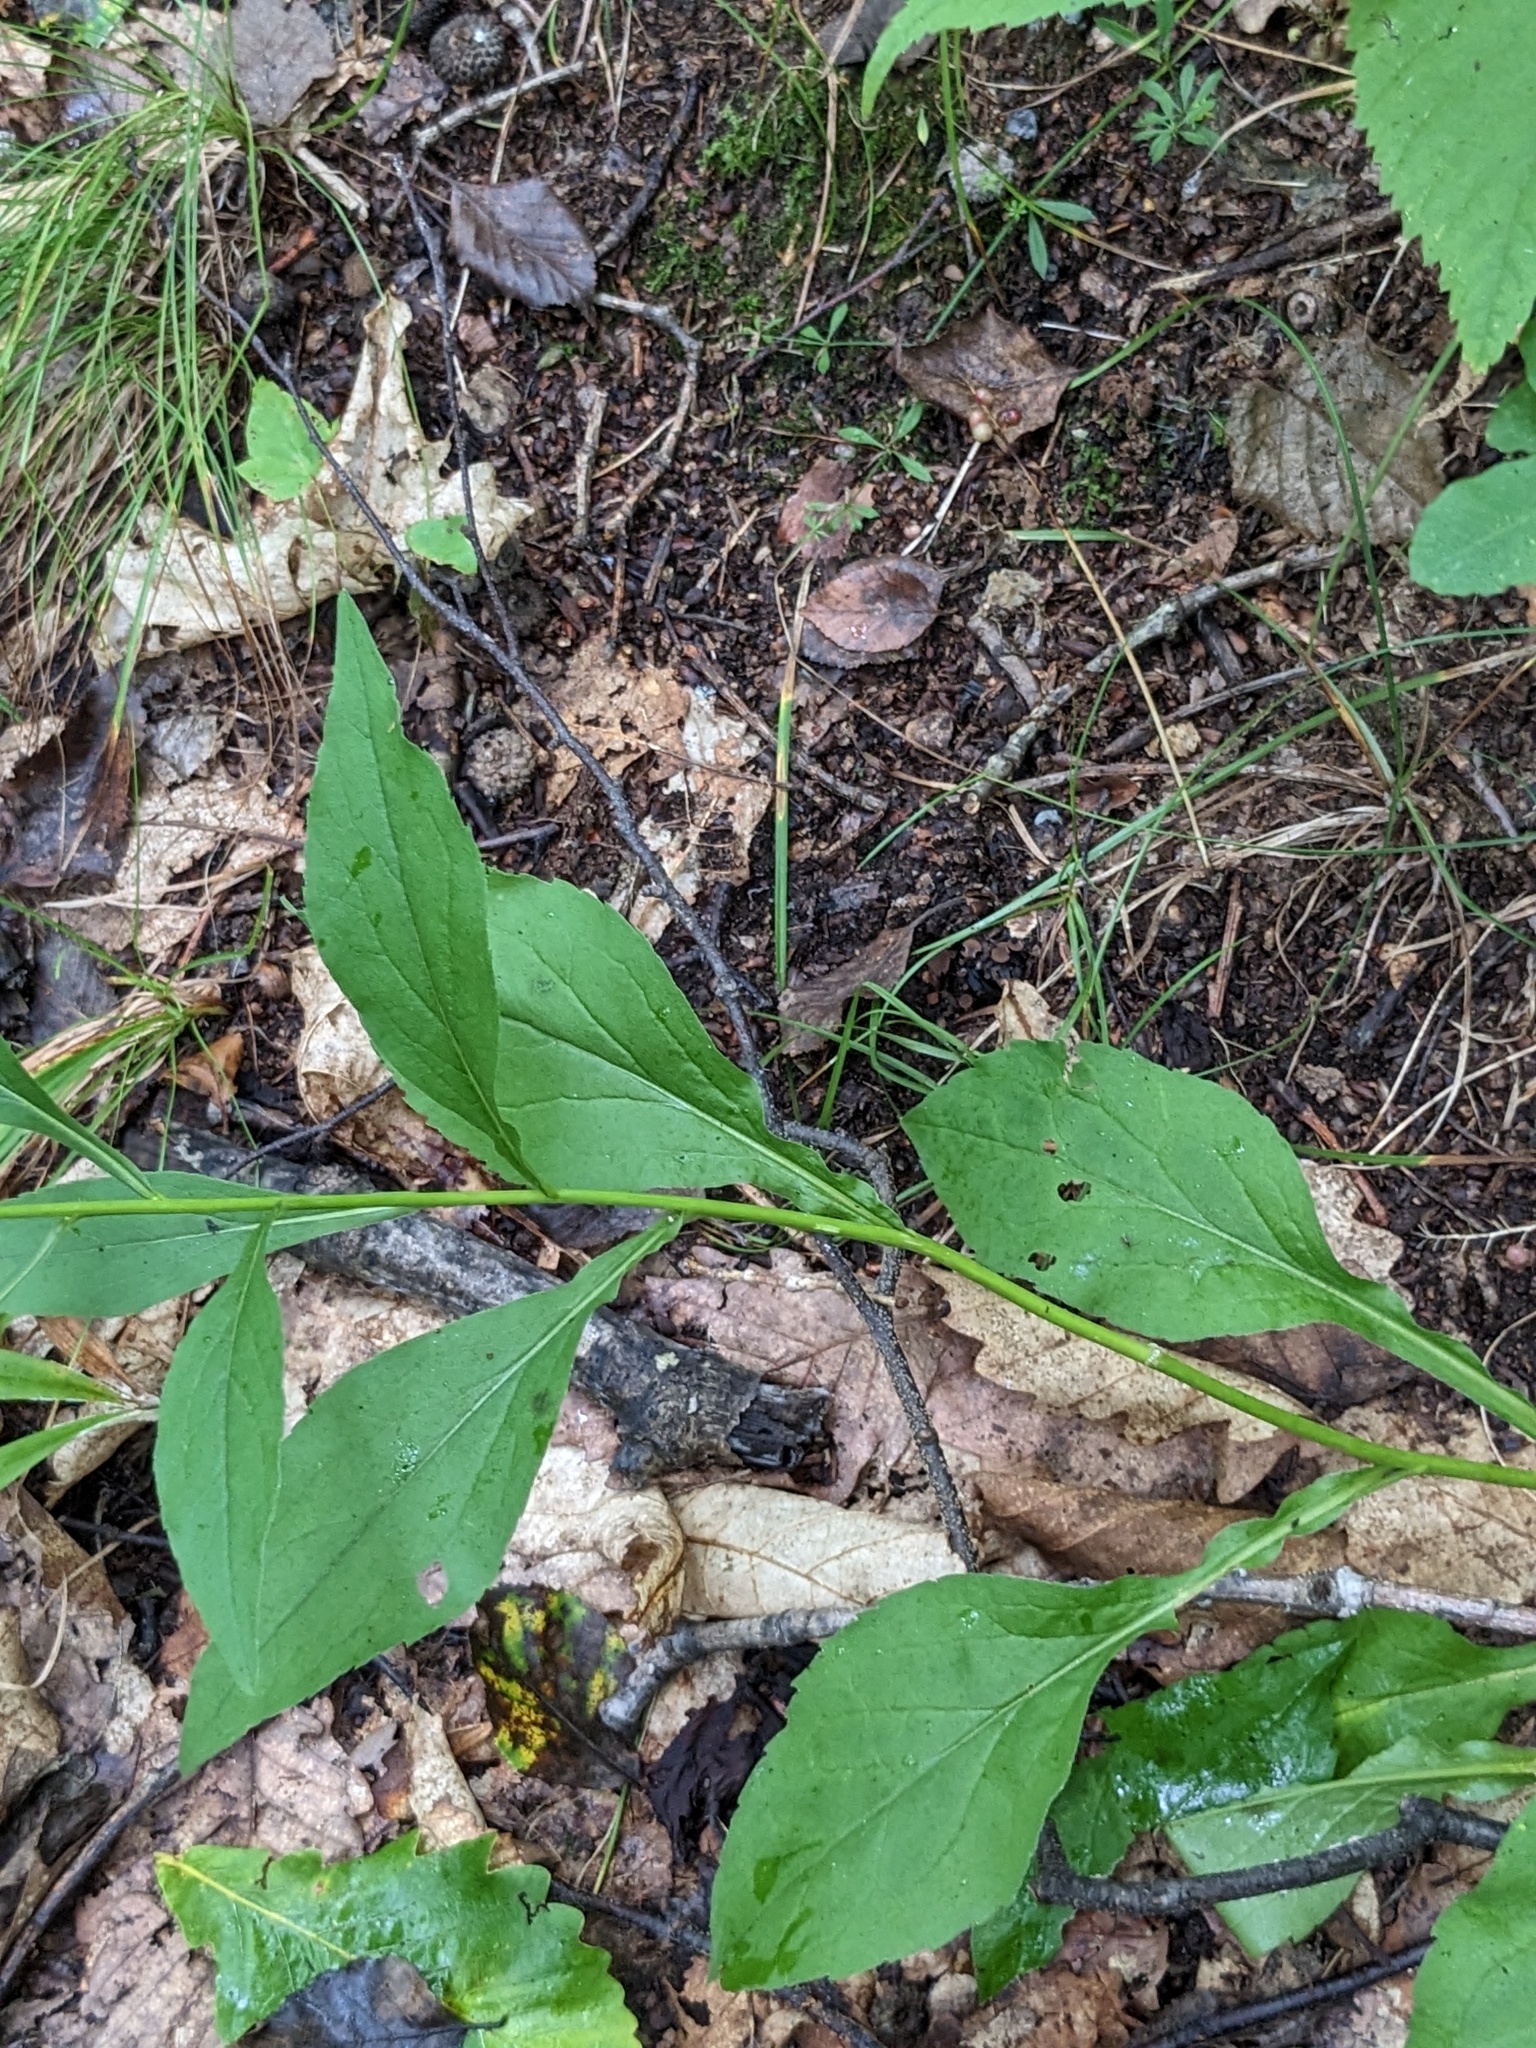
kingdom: Plantae
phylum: Tracheophyta
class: Magnoliopsida
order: Asterales
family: Asteraceae
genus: Solidago
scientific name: Solidago decurrens
